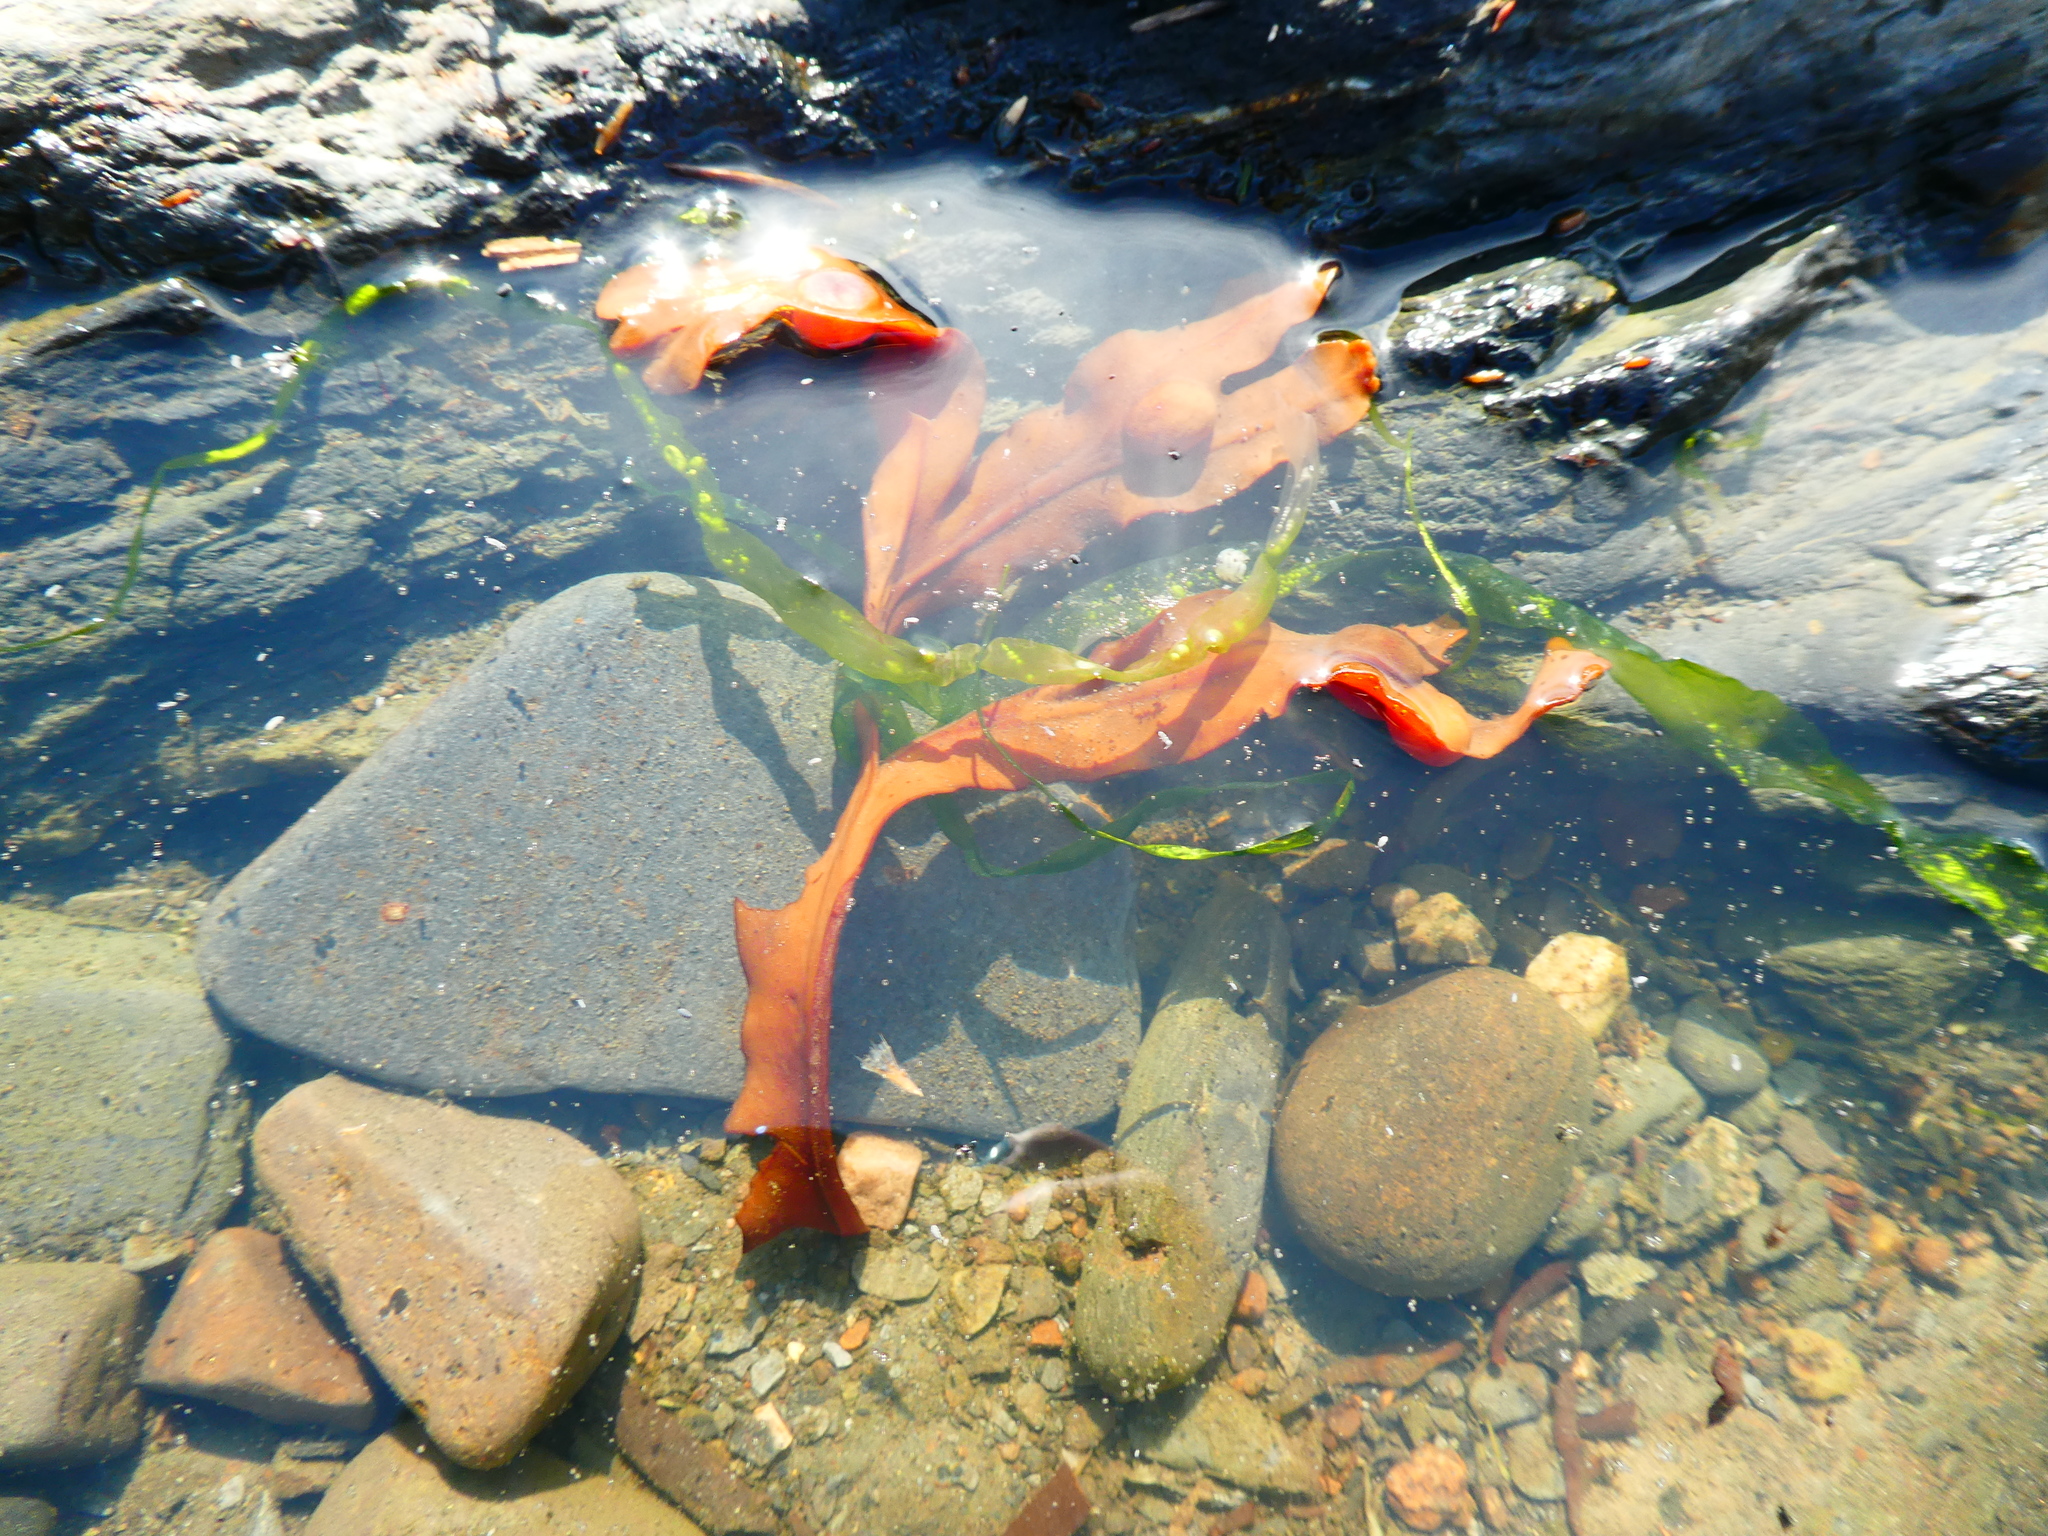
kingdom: Chromista
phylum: Ochrophyta
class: Phaeophyceae
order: Fucales
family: Fucaceae
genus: Fucus
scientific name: Fucus vesiculosus
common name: Bladder wrack
